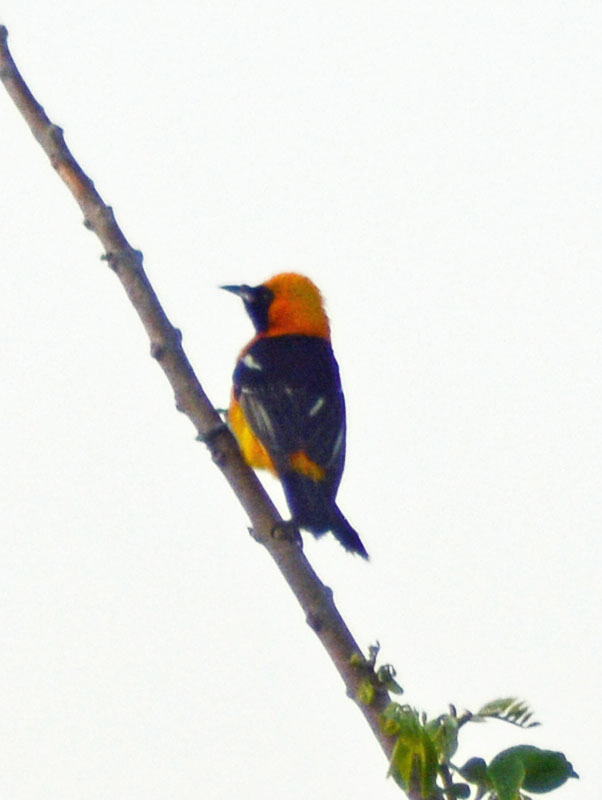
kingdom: Animalia
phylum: Chordata
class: Aves
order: Passeriformes
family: Icteridae
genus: Icterus
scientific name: Icterus cucullatus
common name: Hooded oriole
